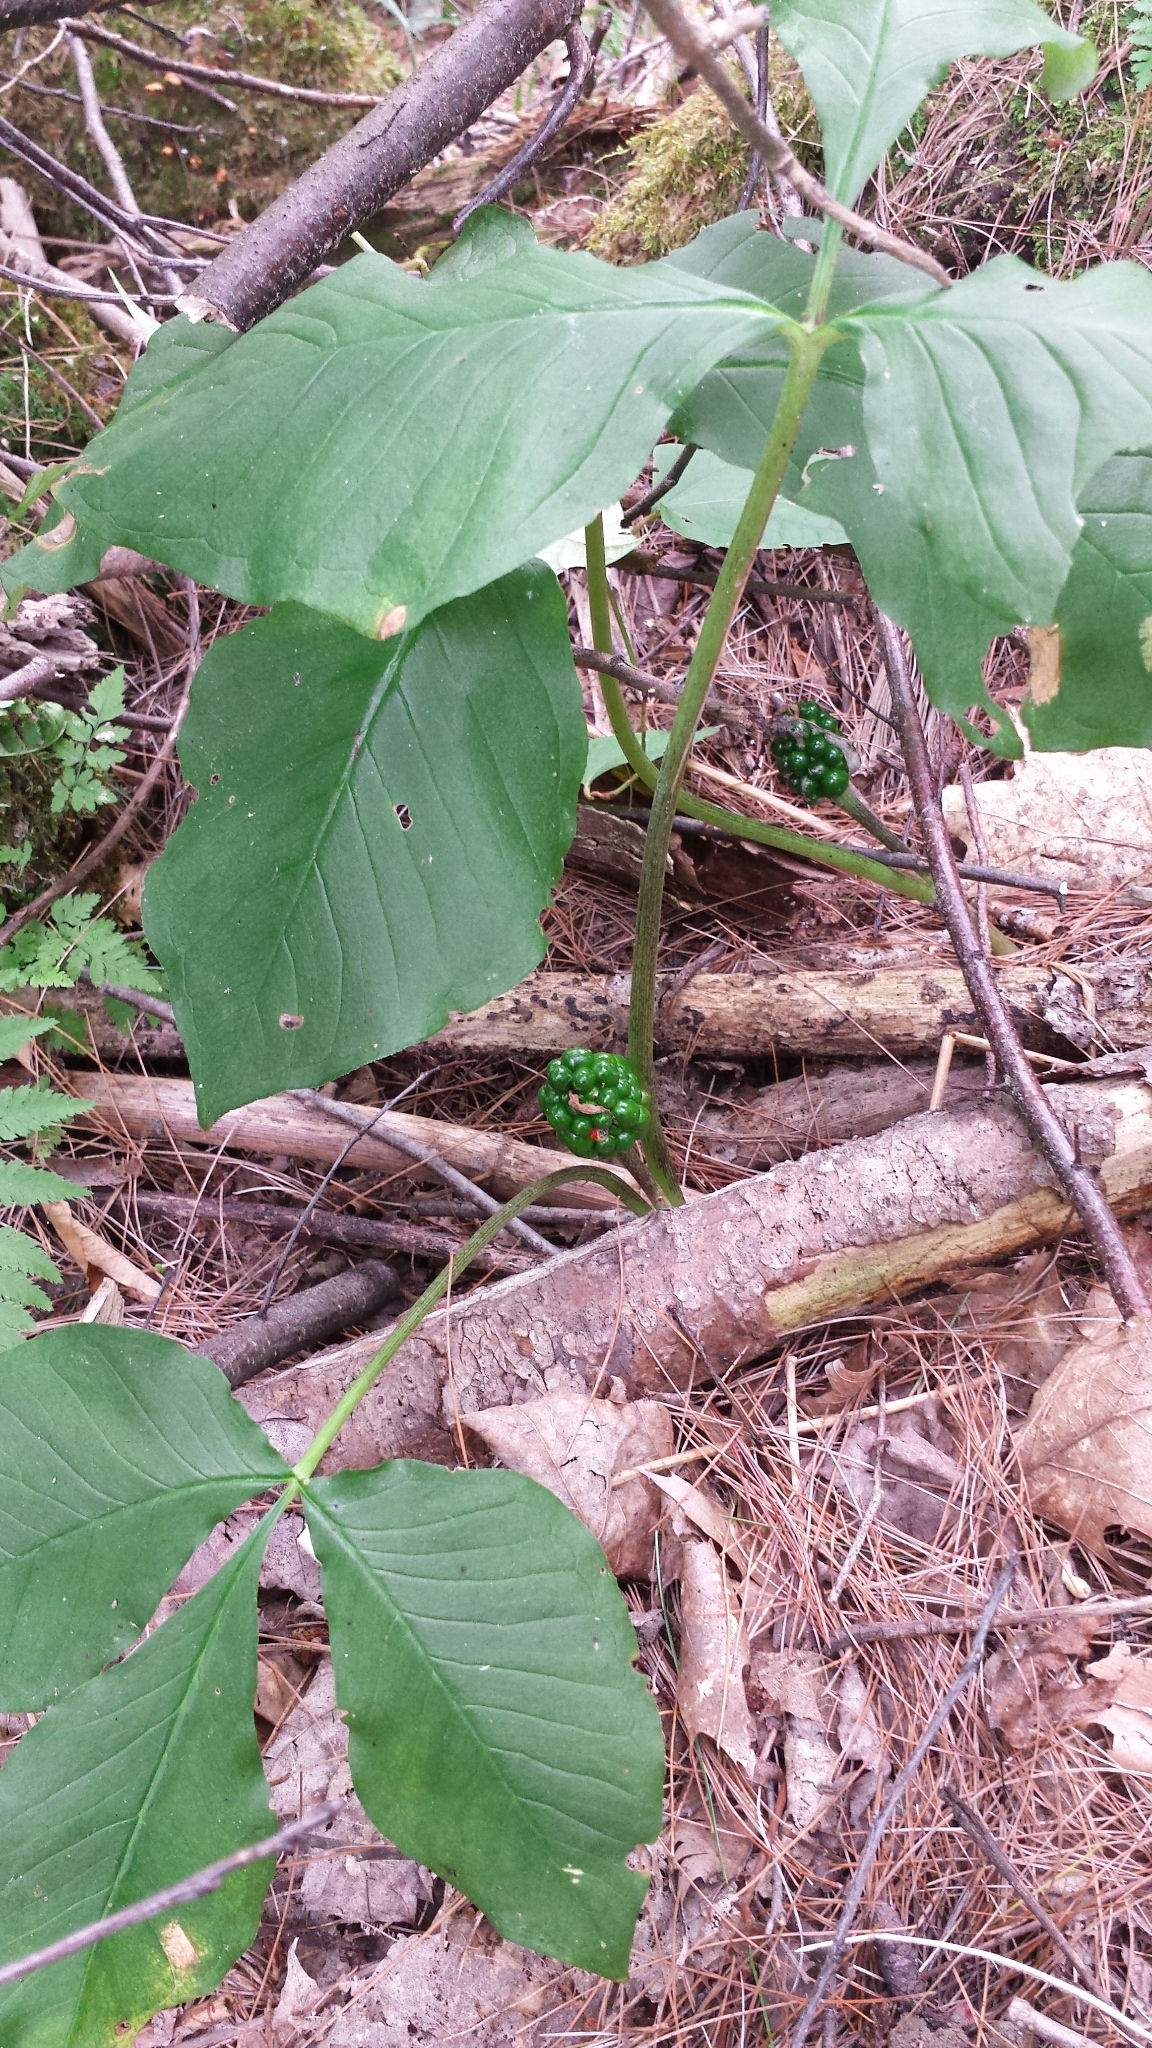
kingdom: Plantae
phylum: Tracheophyta
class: Liliopsida
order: Alismatales
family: Araceae
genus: Arisaema
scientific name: Arisaema triphyllum
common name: Jack-in-the-pulpit
